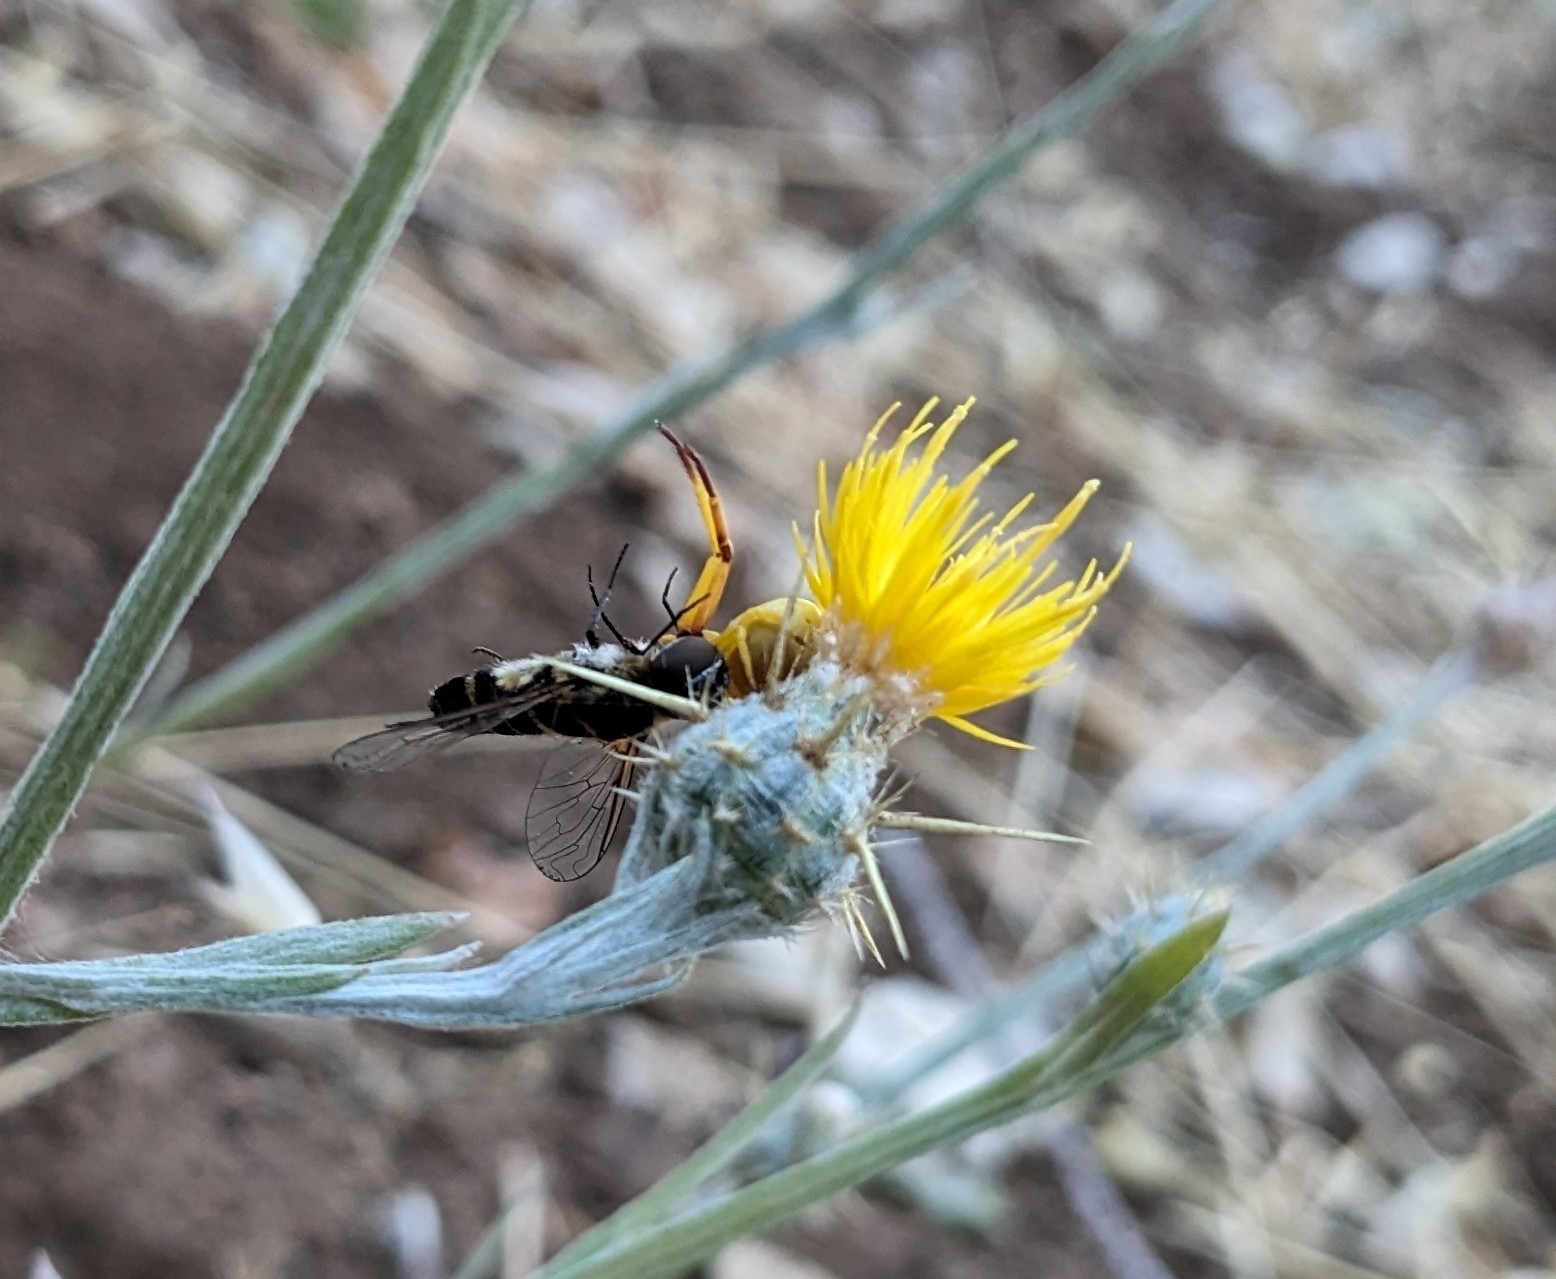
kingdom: Animalia
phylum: Arthropoda
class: Arachnida
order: Araneae
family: Thomisidae
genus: Misumena
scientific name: Misumena vatia
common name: Goldenrod crab spider
